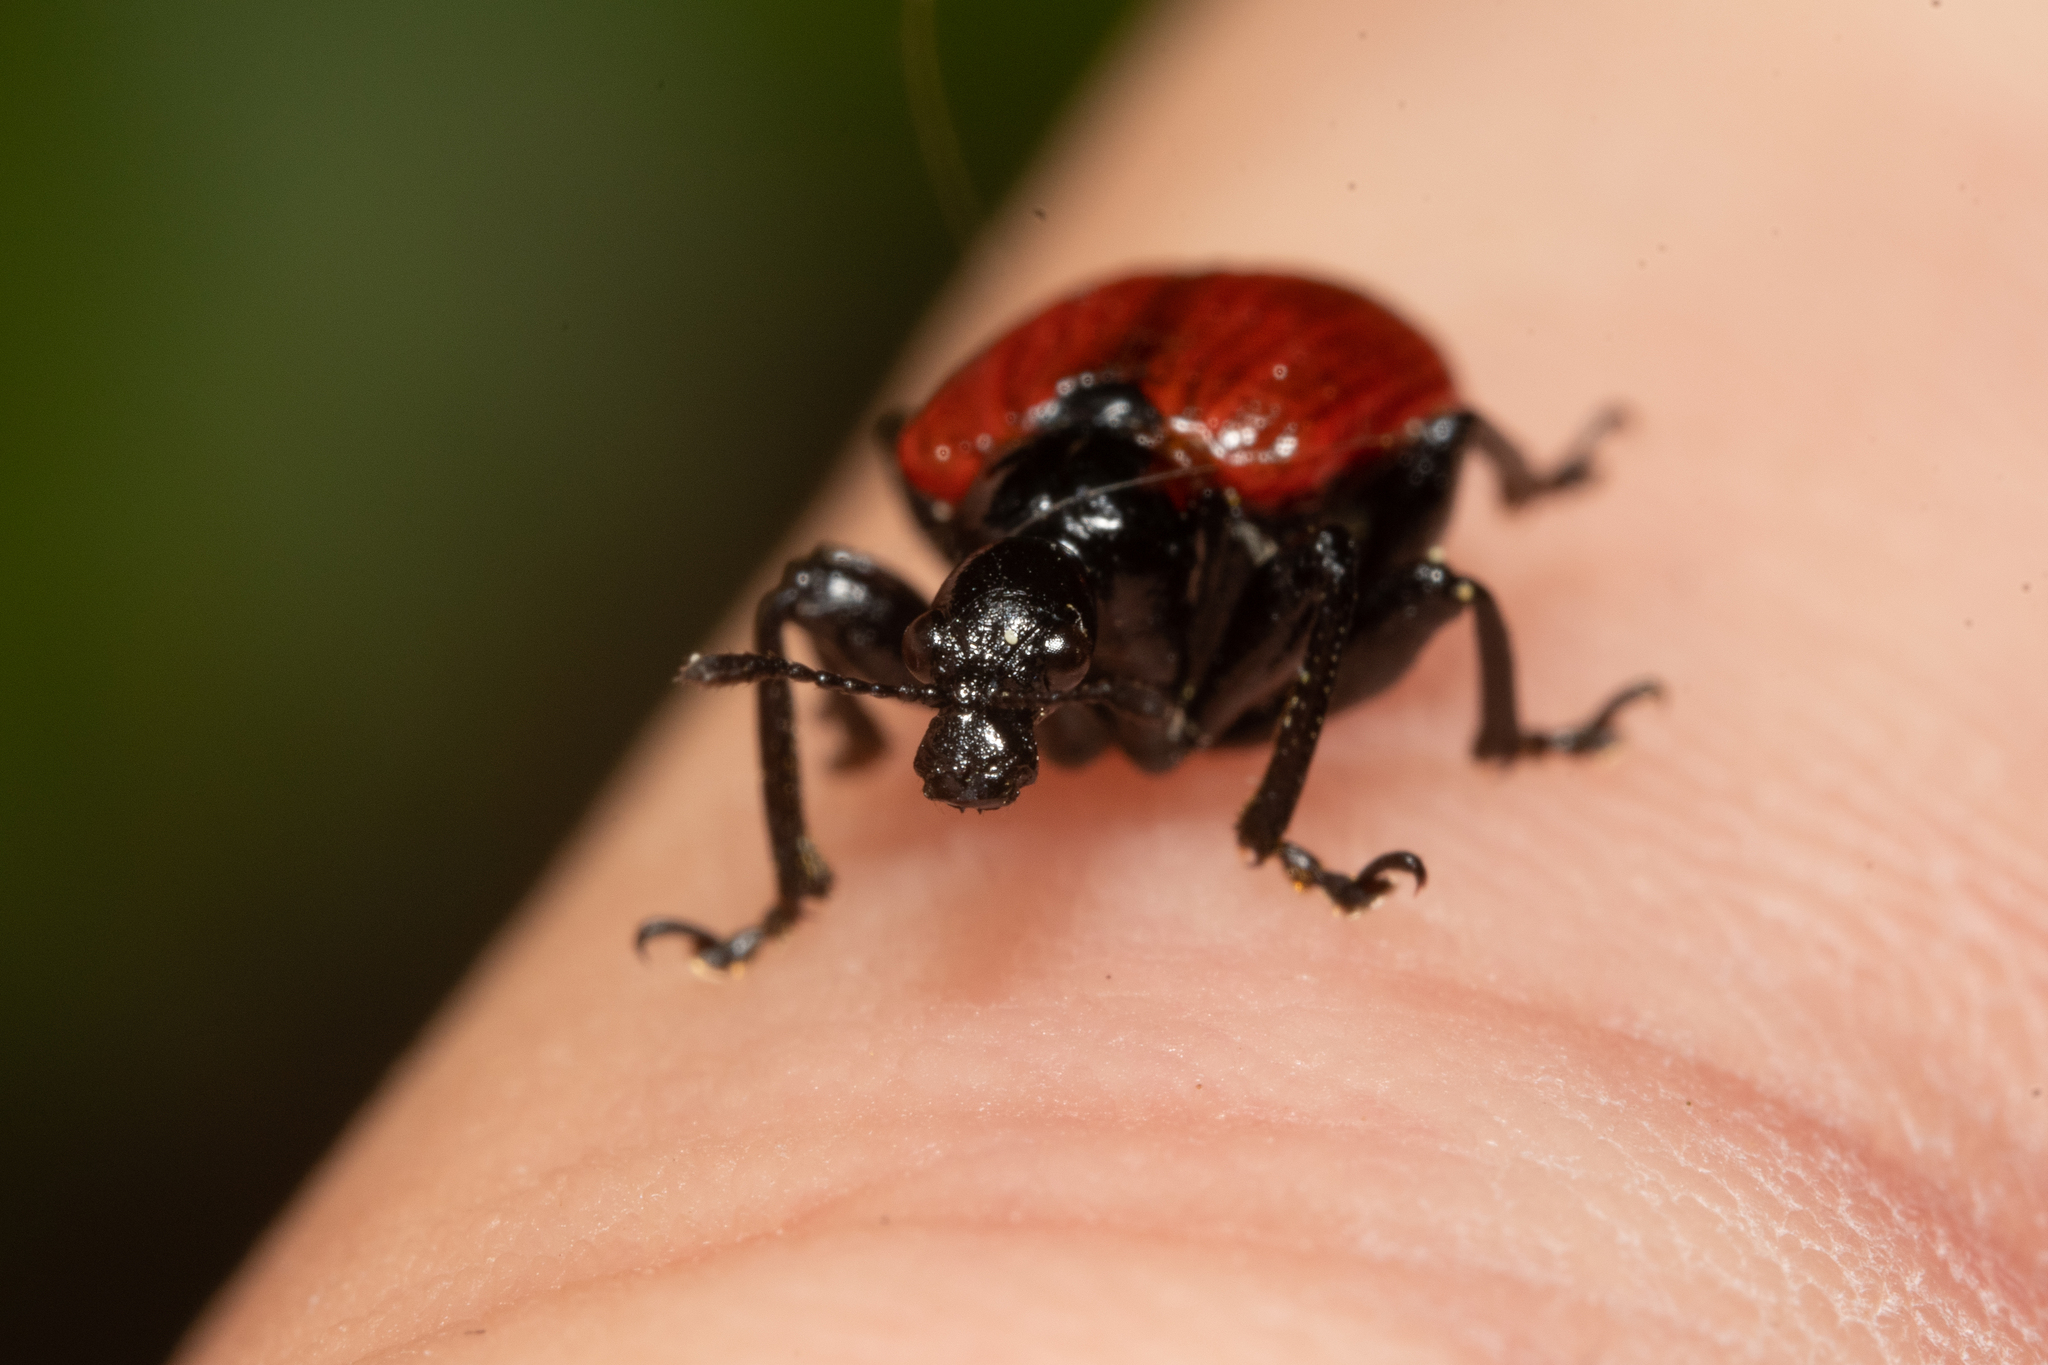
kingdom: Animalia
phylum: Arthropoda
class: Insecta
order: Coleoptera
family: Attelabidae
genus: Apoderus
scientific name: Apoderus coryli
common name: Hazel leaf roller
